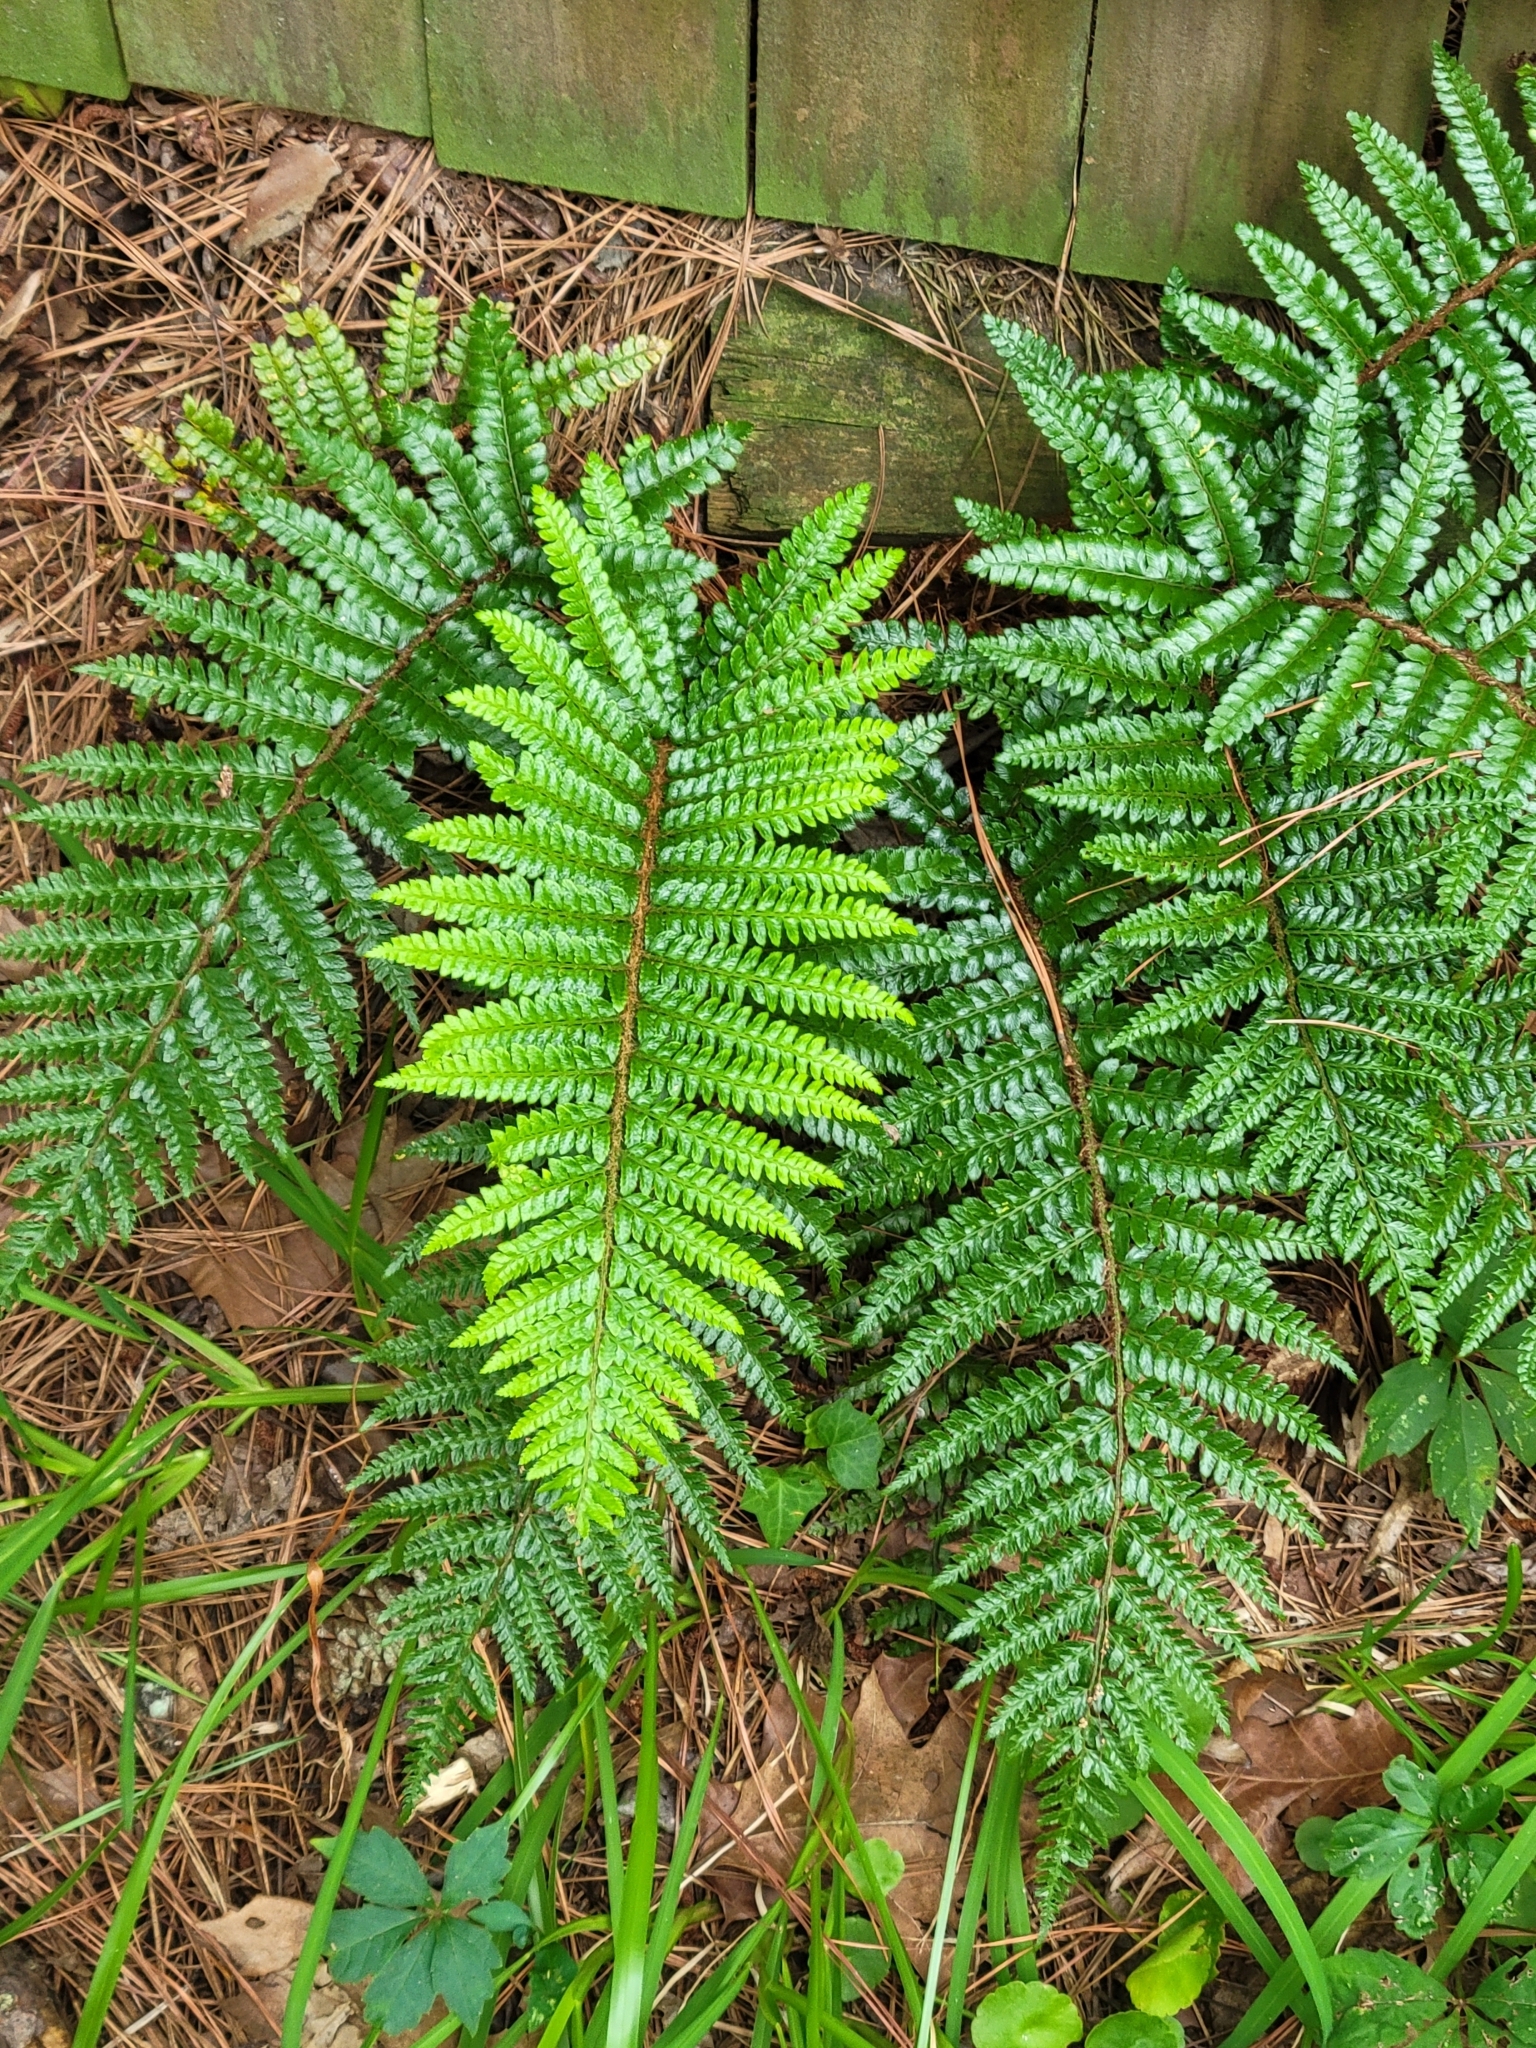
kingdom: Plantae
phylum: Tracheophyta
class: Polypodiopsida
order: Polypodiales
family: Dryopteridaceae
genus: Polystichum
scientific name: Polystichum luctuosum
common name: Korean rockfern
